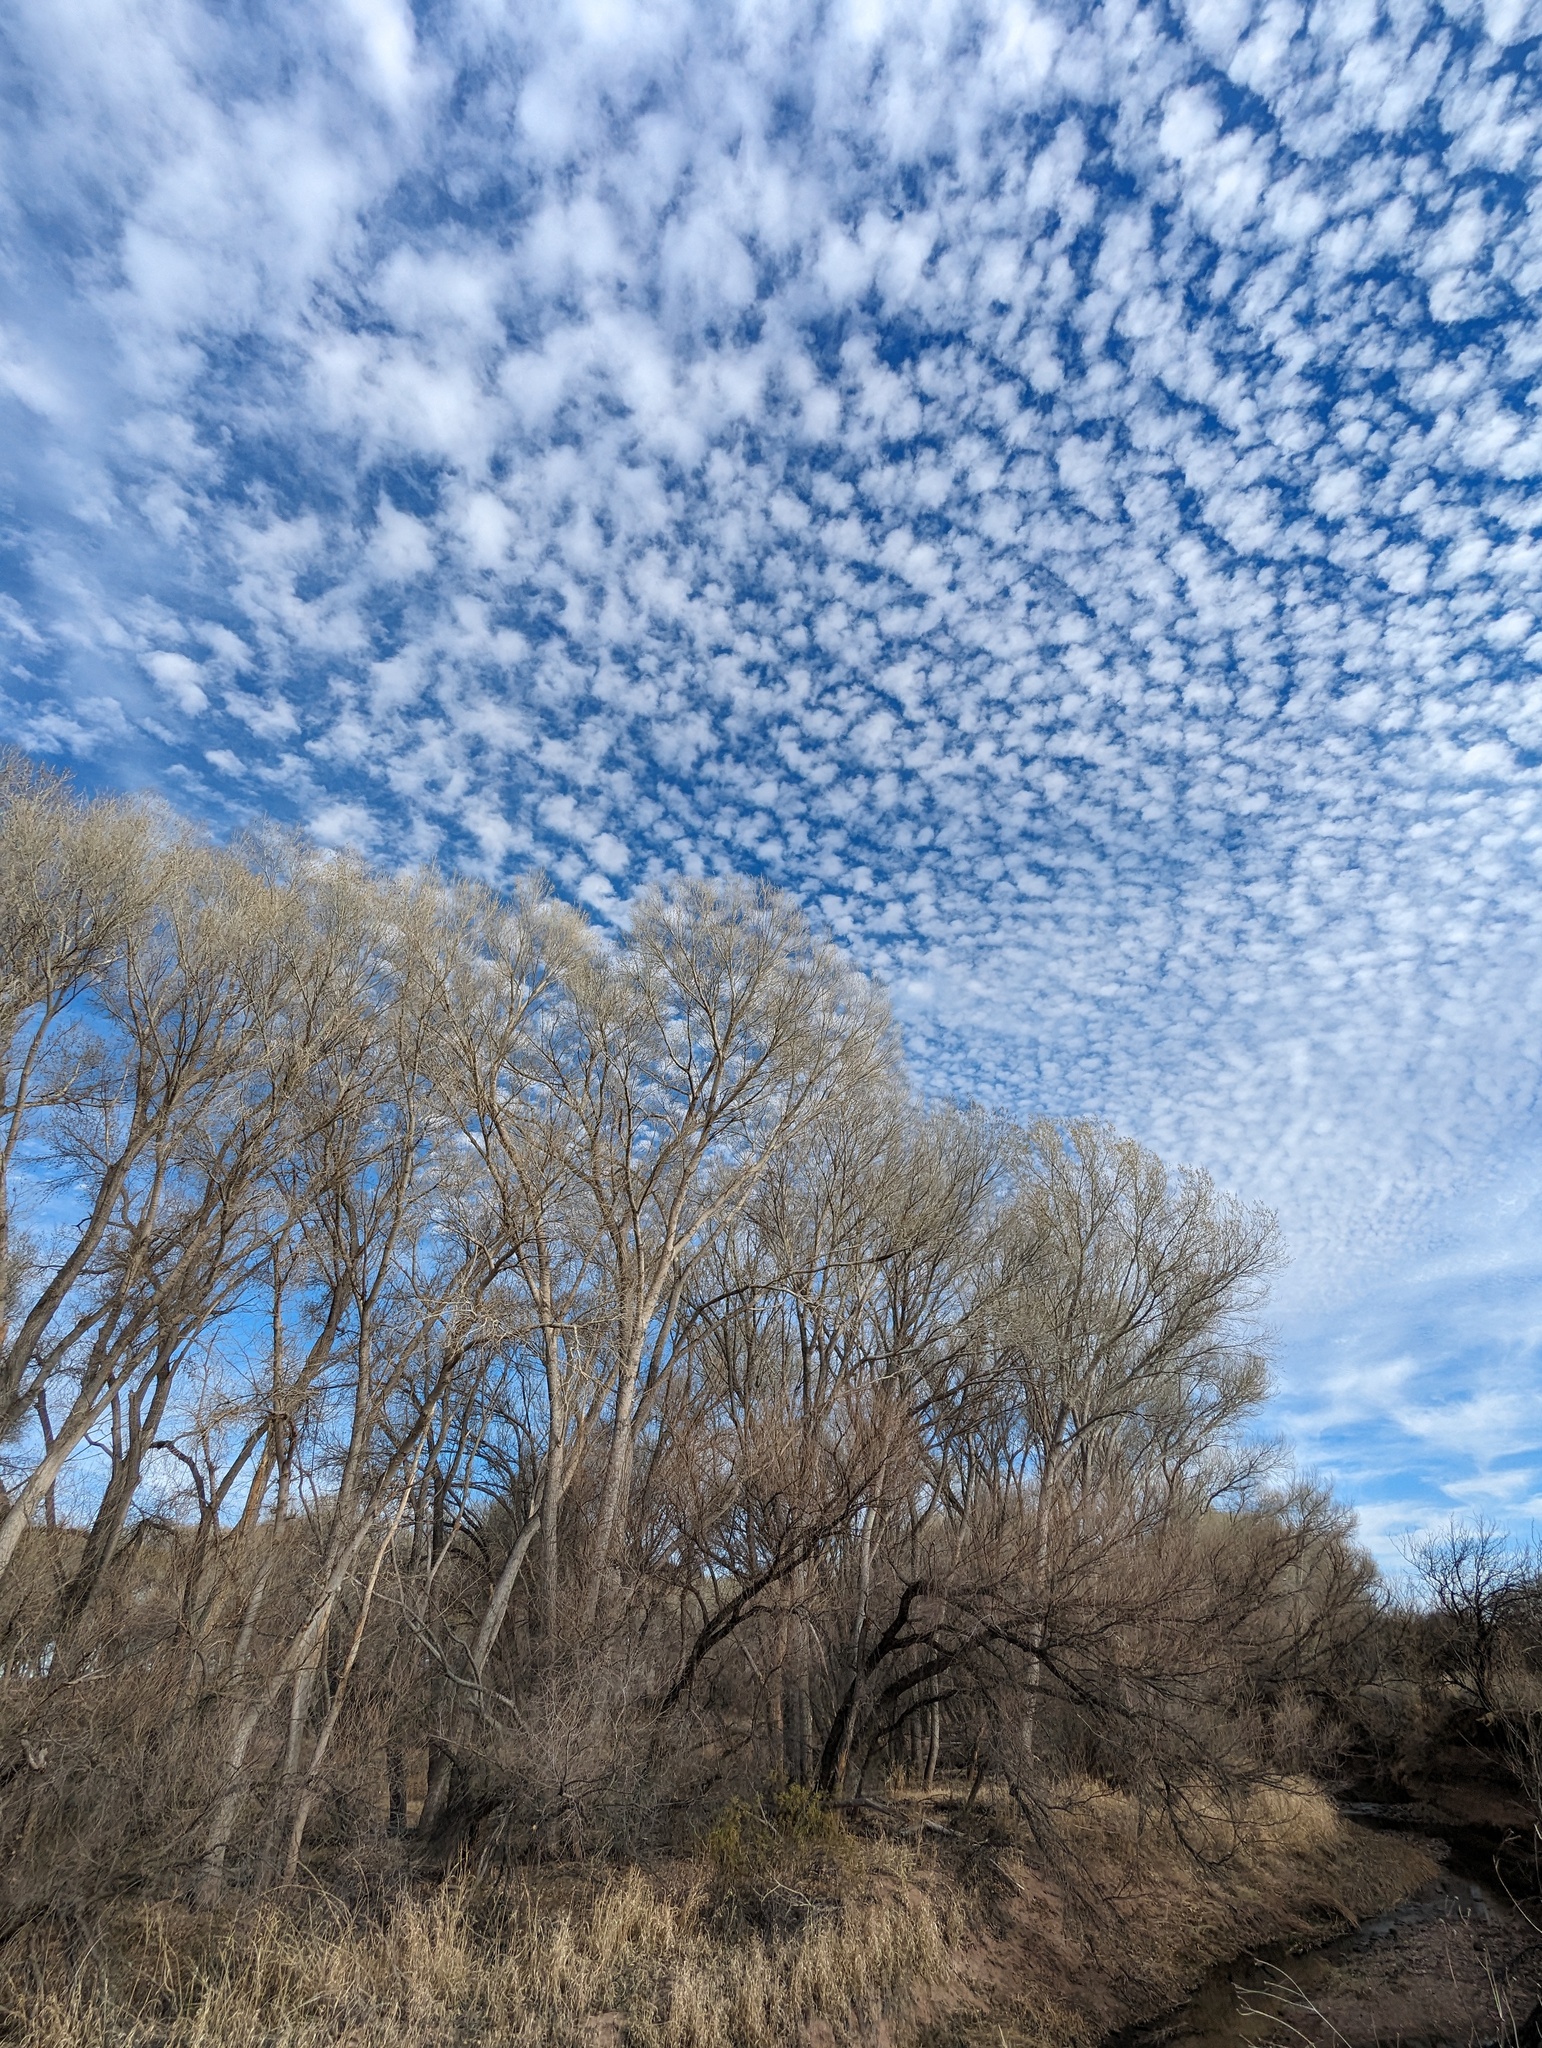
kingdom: Plantae
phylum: Tracheophyta
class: Magnoliopsida
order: Malpighiales
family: Salicaceae
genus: Populus
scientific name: Populus fremontii
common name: Fremont's cottonwood
